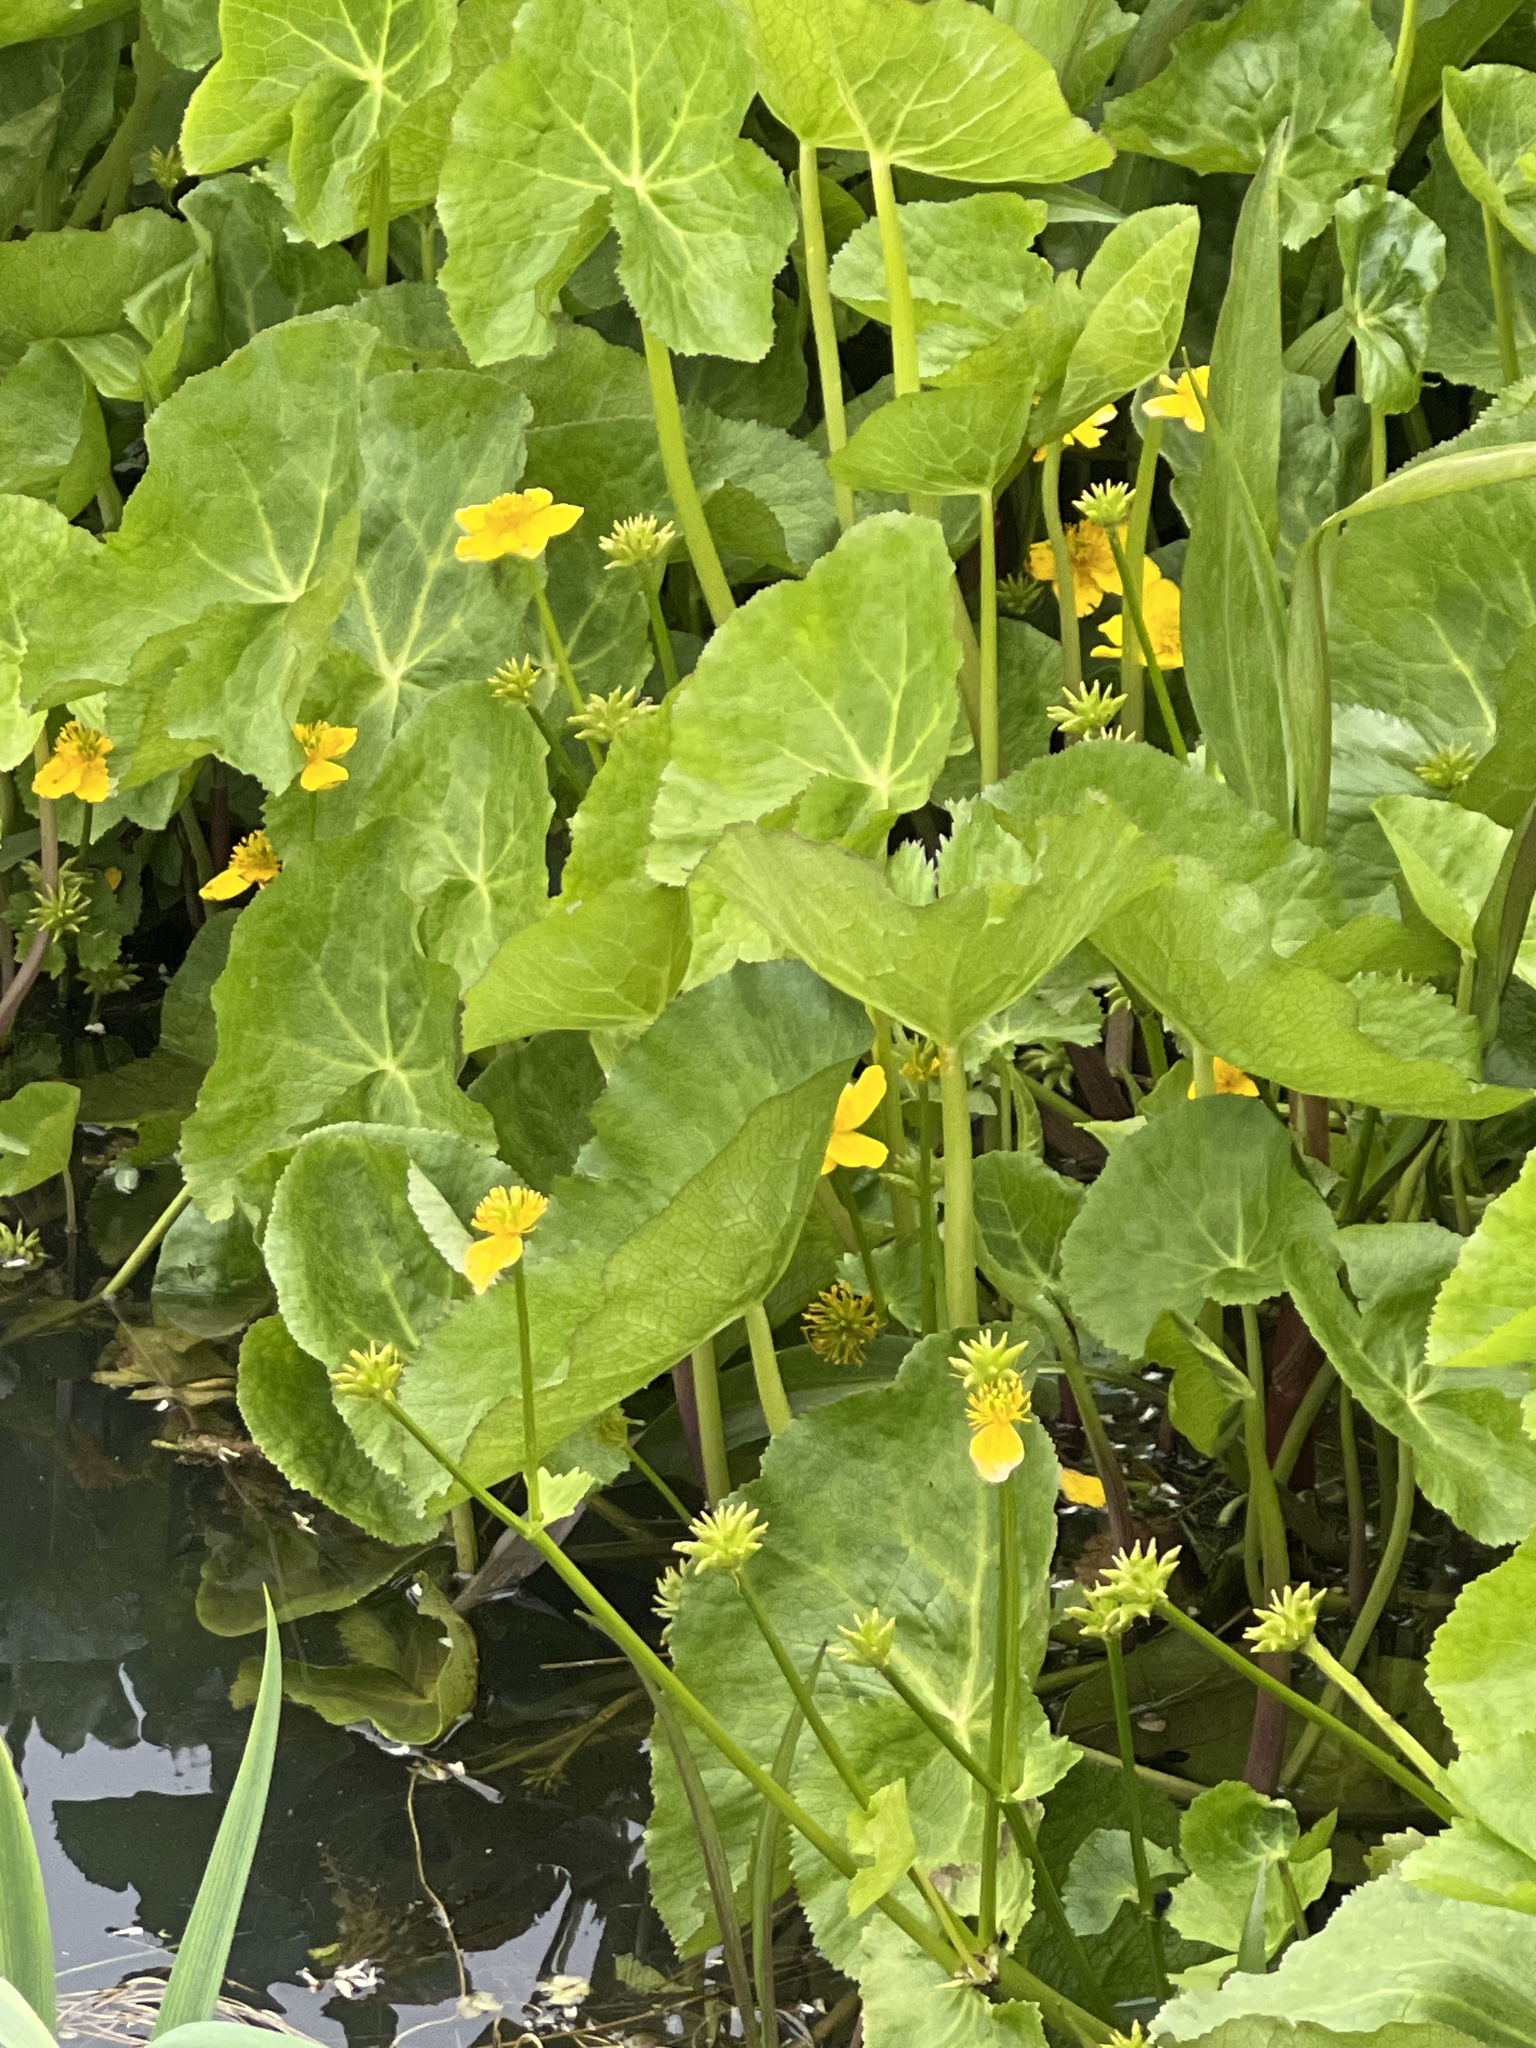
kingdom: Plantae
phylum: Tracheophyta
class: Magnoliopsida
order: Ranunculales
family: Ranunculaceae
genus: Caltha
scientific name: Caltha palustris
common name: Marsh marigold
